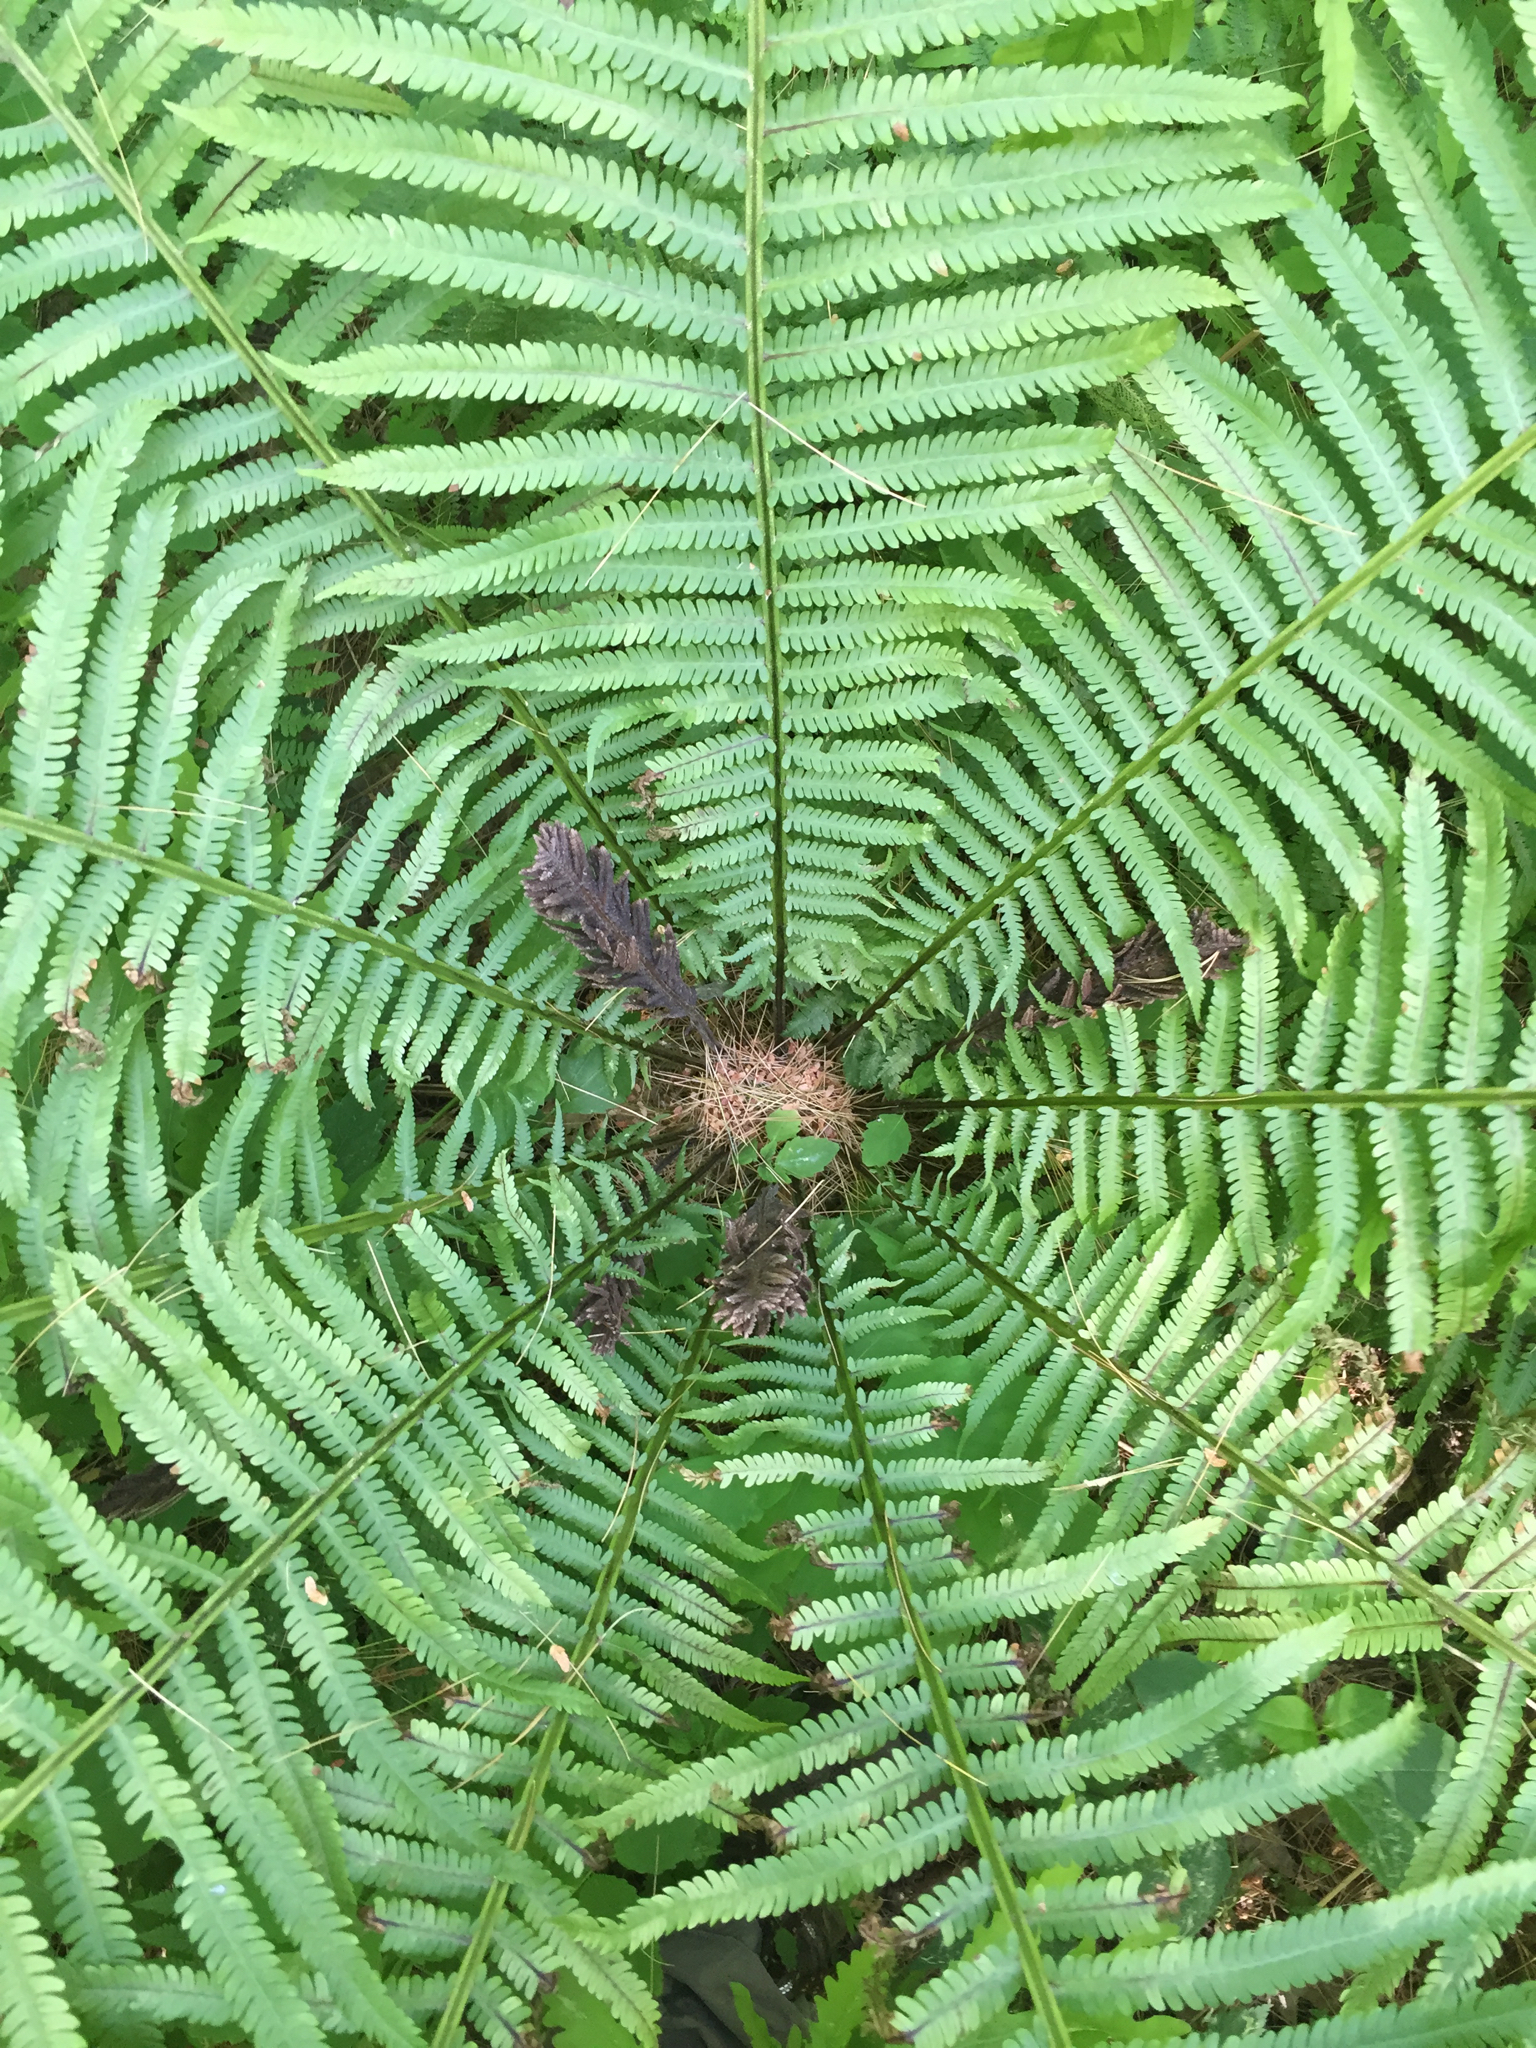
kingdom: Plantae
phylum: Tracheophyta
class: Polypodiopsida
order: Polypodiales
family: Onocleaceae
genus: Matteuccia
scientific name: Matteuccia struthiopteris
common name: Ostrich fern
